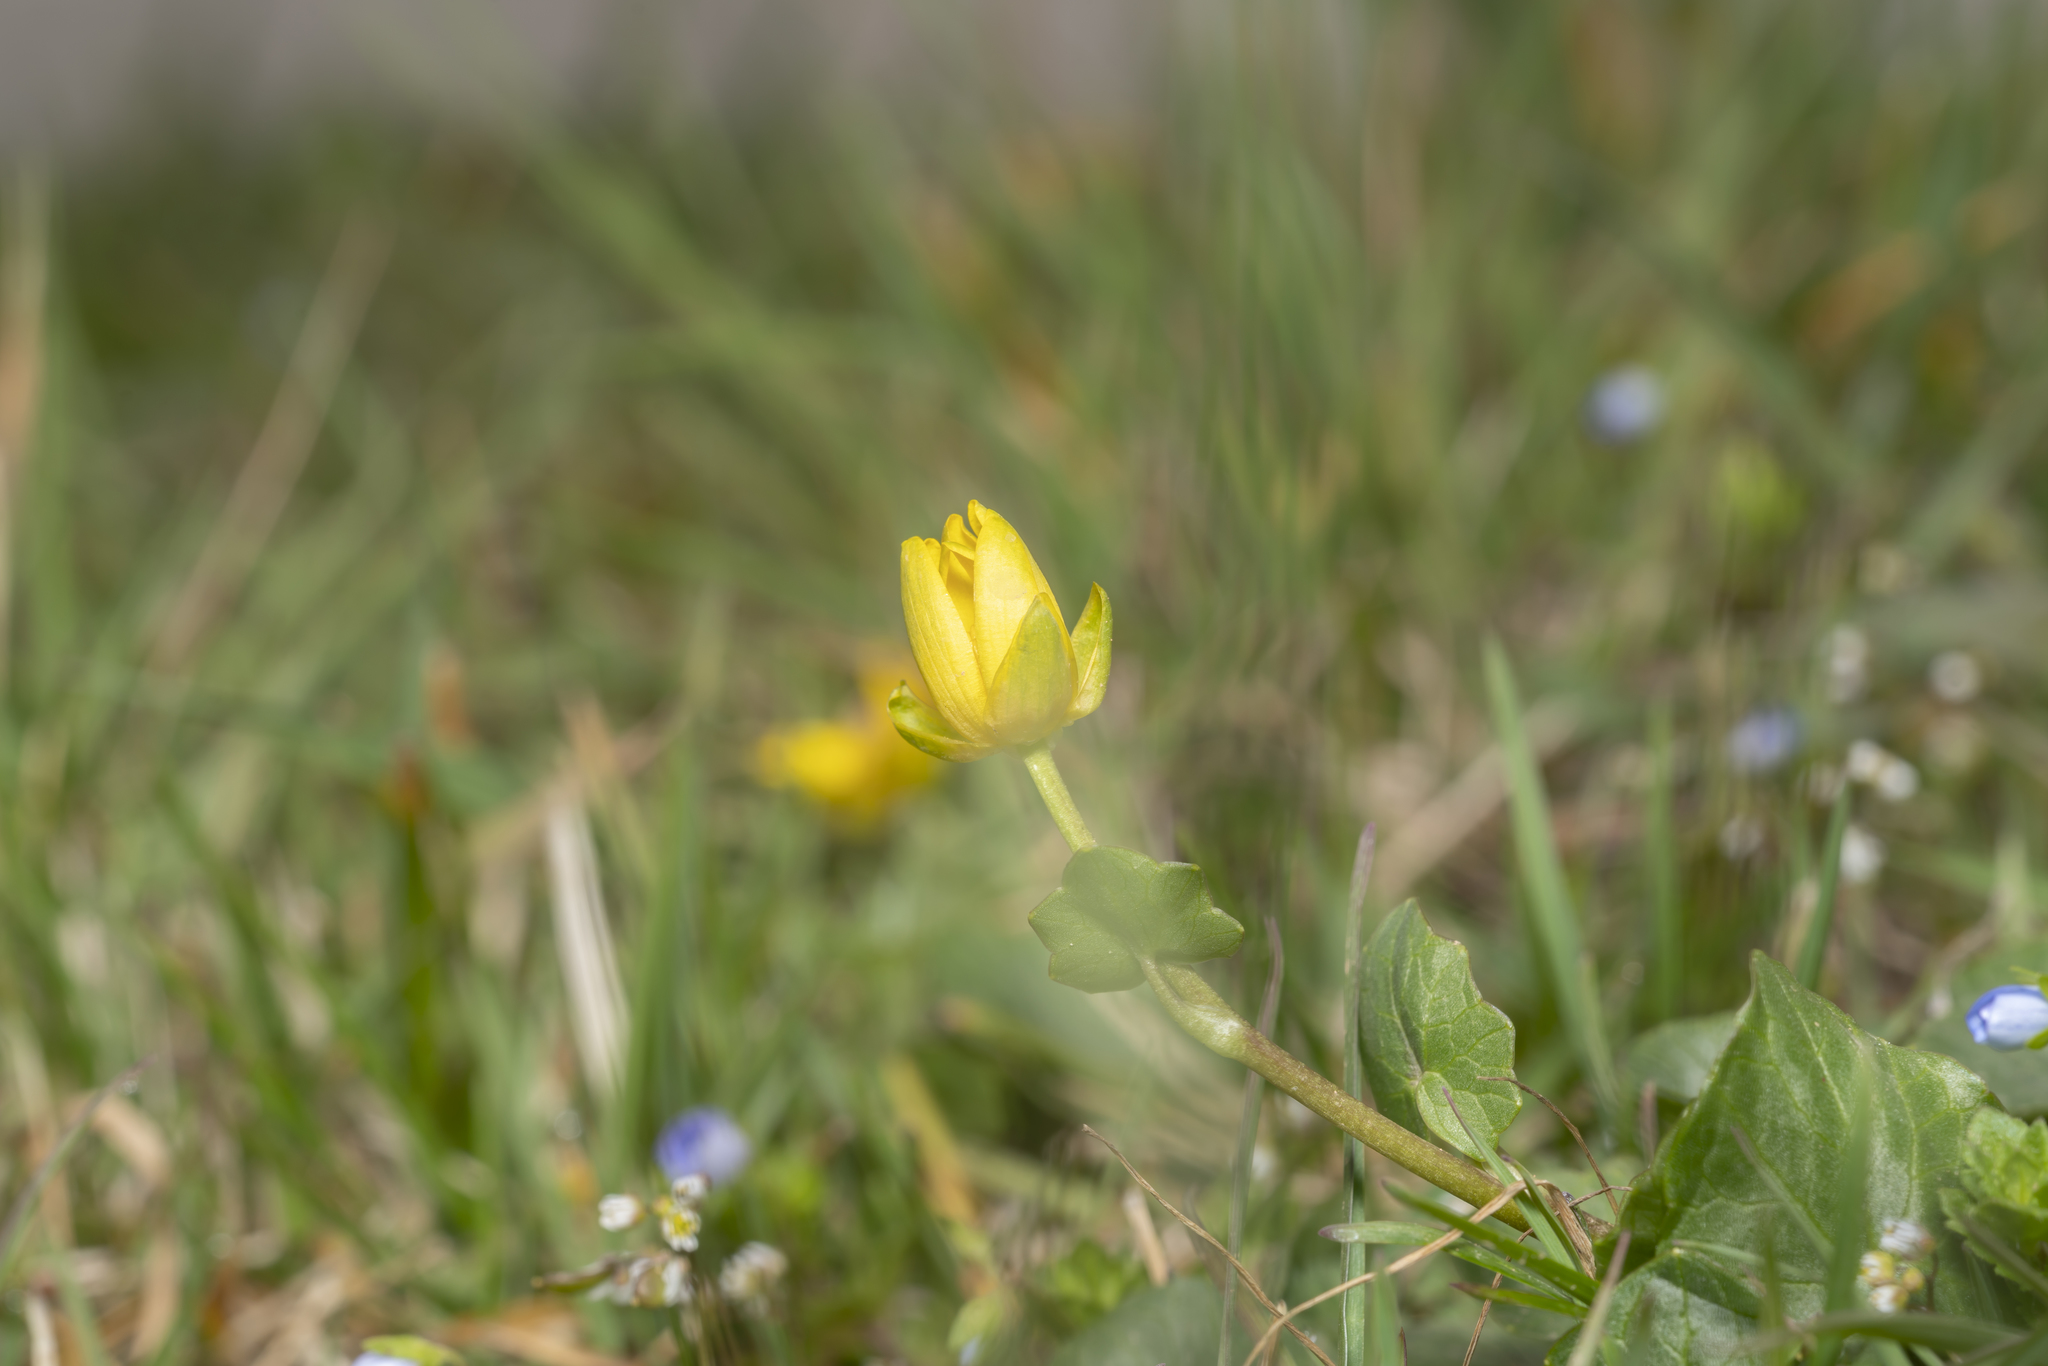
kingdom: Plantae
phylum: Tracheophyta
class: Magnoliopsida
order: Ranunculales
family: Ranunculaceae
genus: Ficaria
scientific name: Ficaria verna
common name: Lesser celandine
